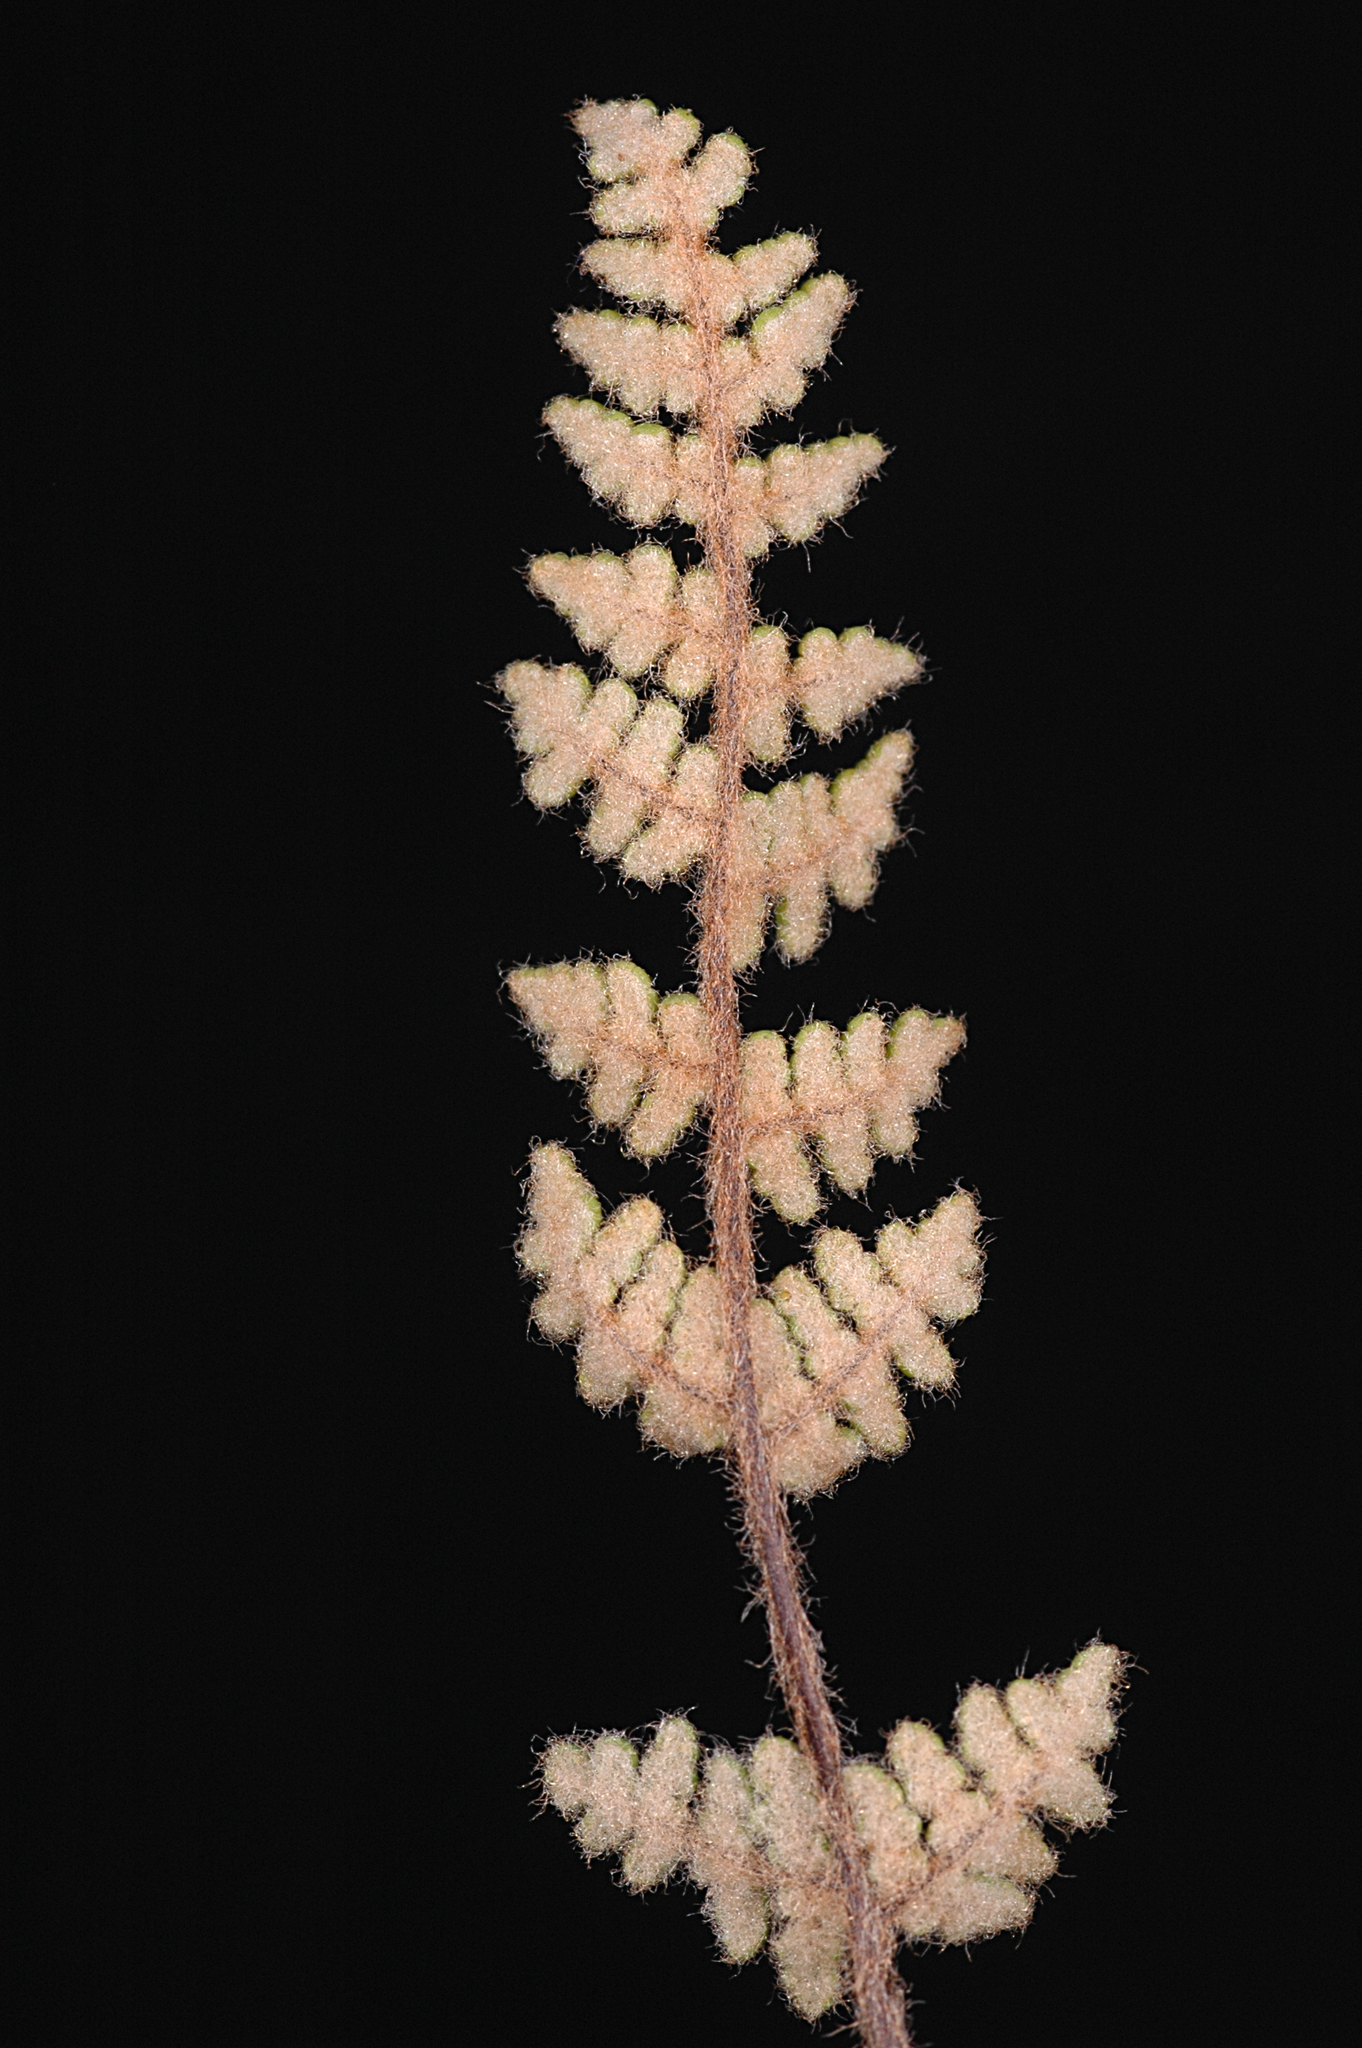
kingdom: Plantae
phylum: Tracheophyta
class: Polypodiopsida
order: Polypodiales
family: Pteridaceae
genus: Myriopteris
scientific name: Myriopteris gracilis
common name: Fee's lip fern
